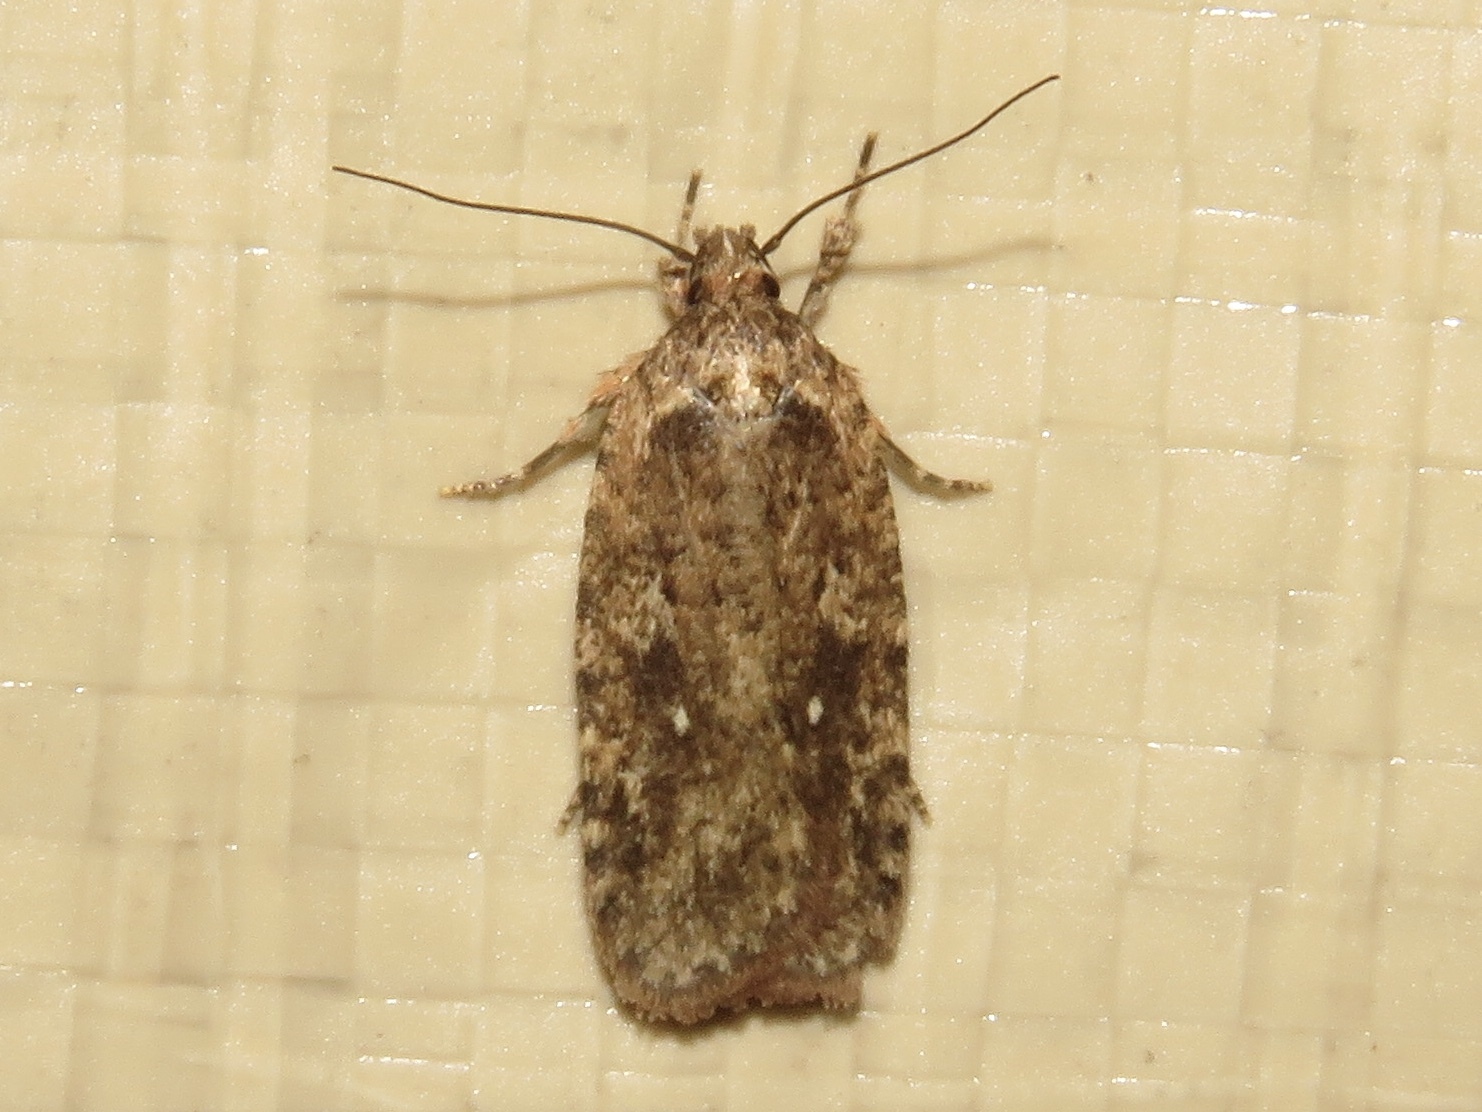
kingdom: Animalia
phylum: Arthropoda
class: Insecta
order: Lepidoptera
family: Depressariidae
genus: Agonopterix
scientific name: Agonopterix pulvipennella
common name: Goldenrod leafffolder
